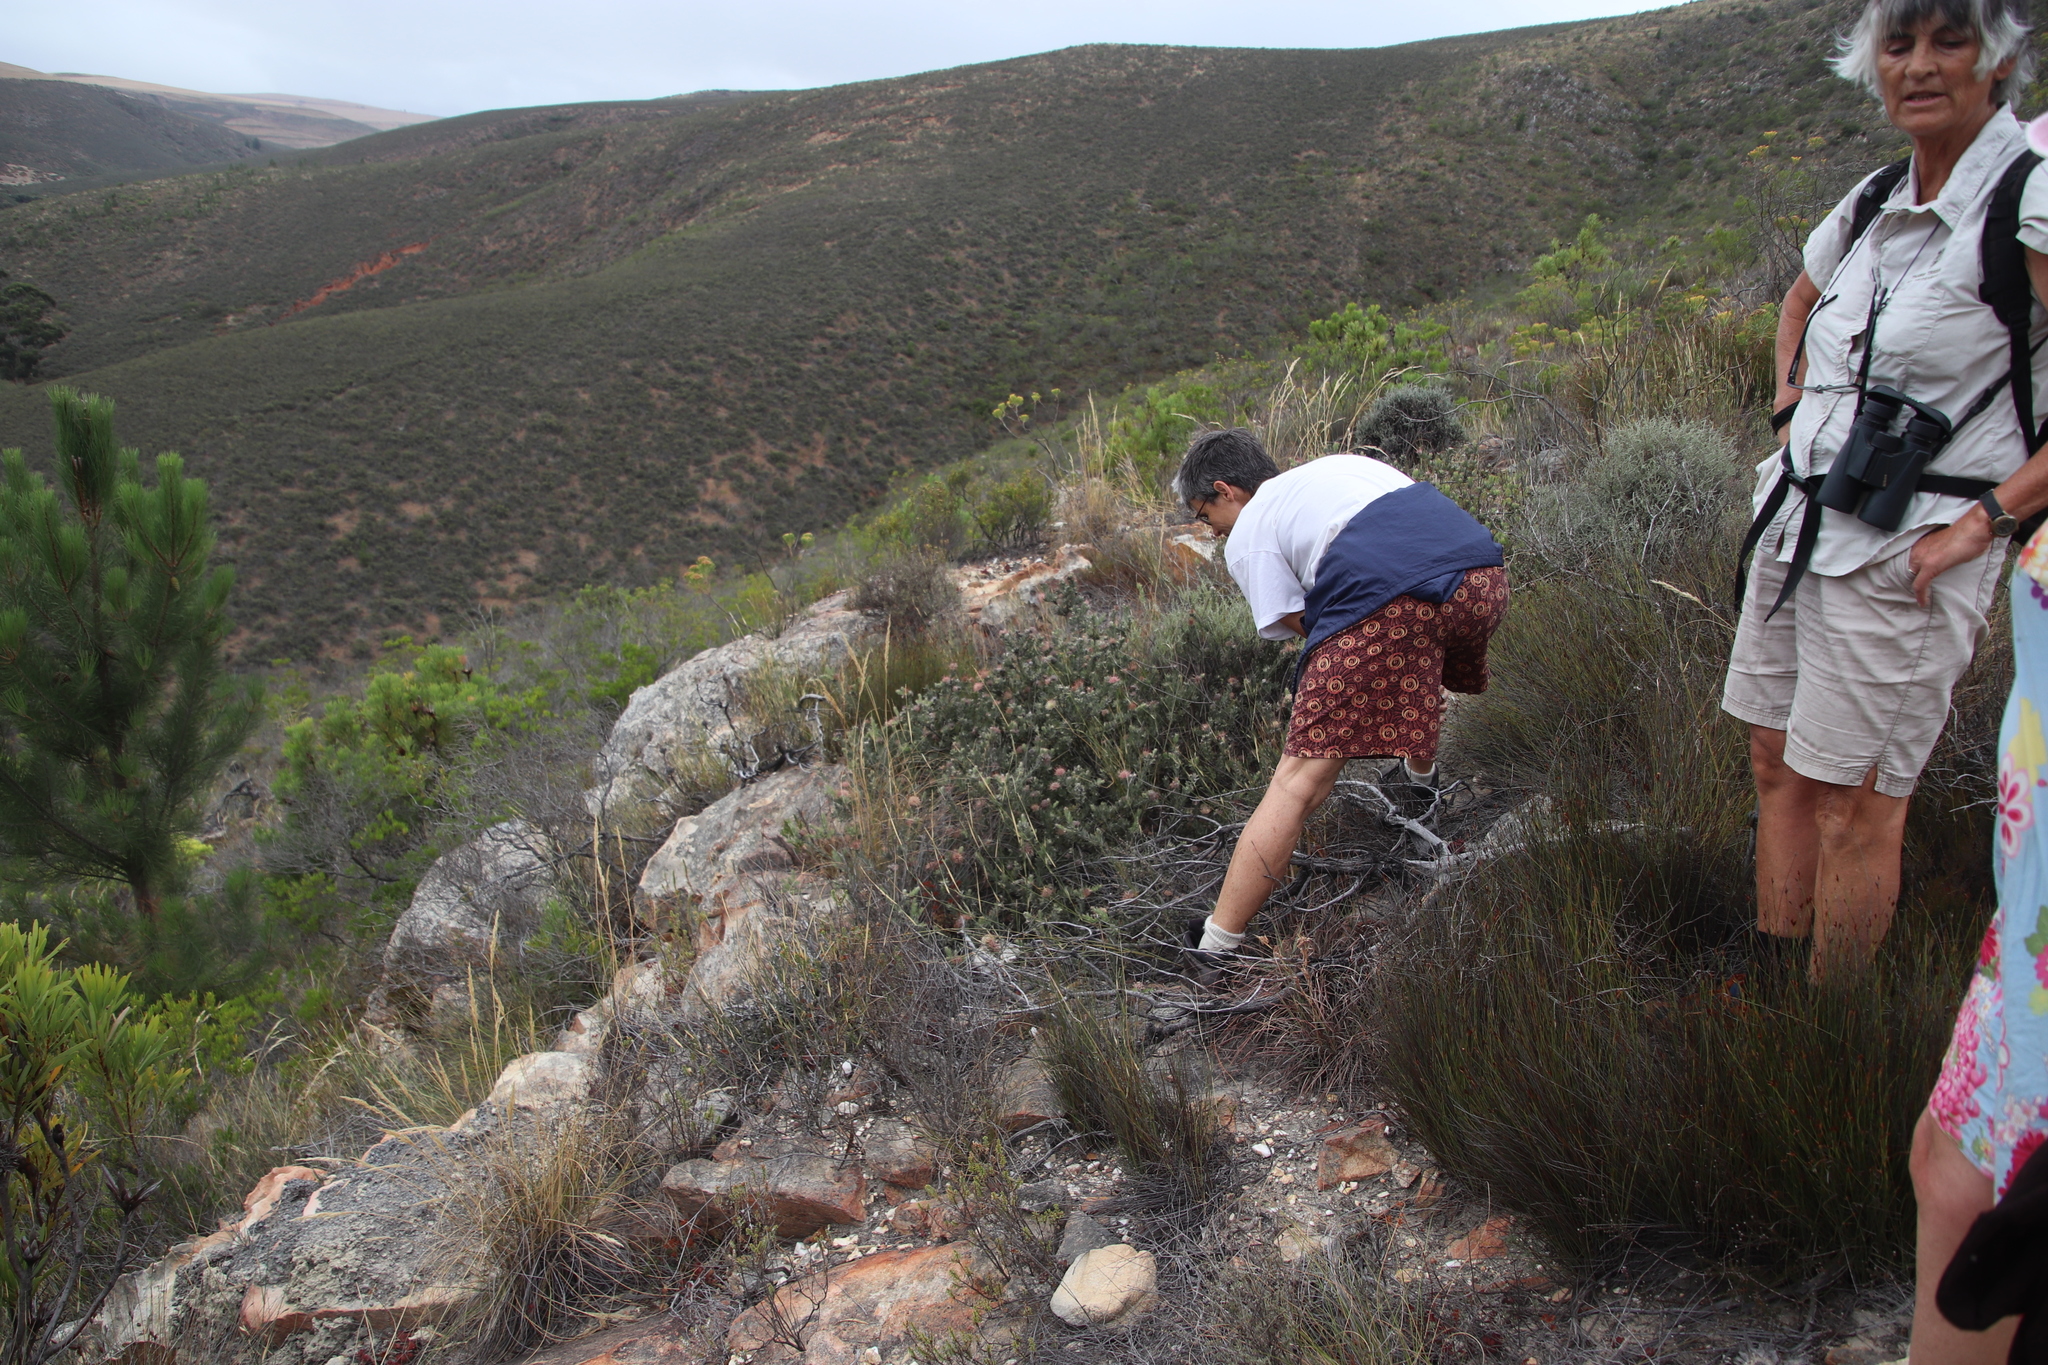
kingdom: Plantae
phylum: Tracheophyta
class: Magnoliopsida
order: Proteales
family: Proteaceae
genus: Leucospermum
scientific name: Leucospermum calligerum
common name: Arid pincushion
